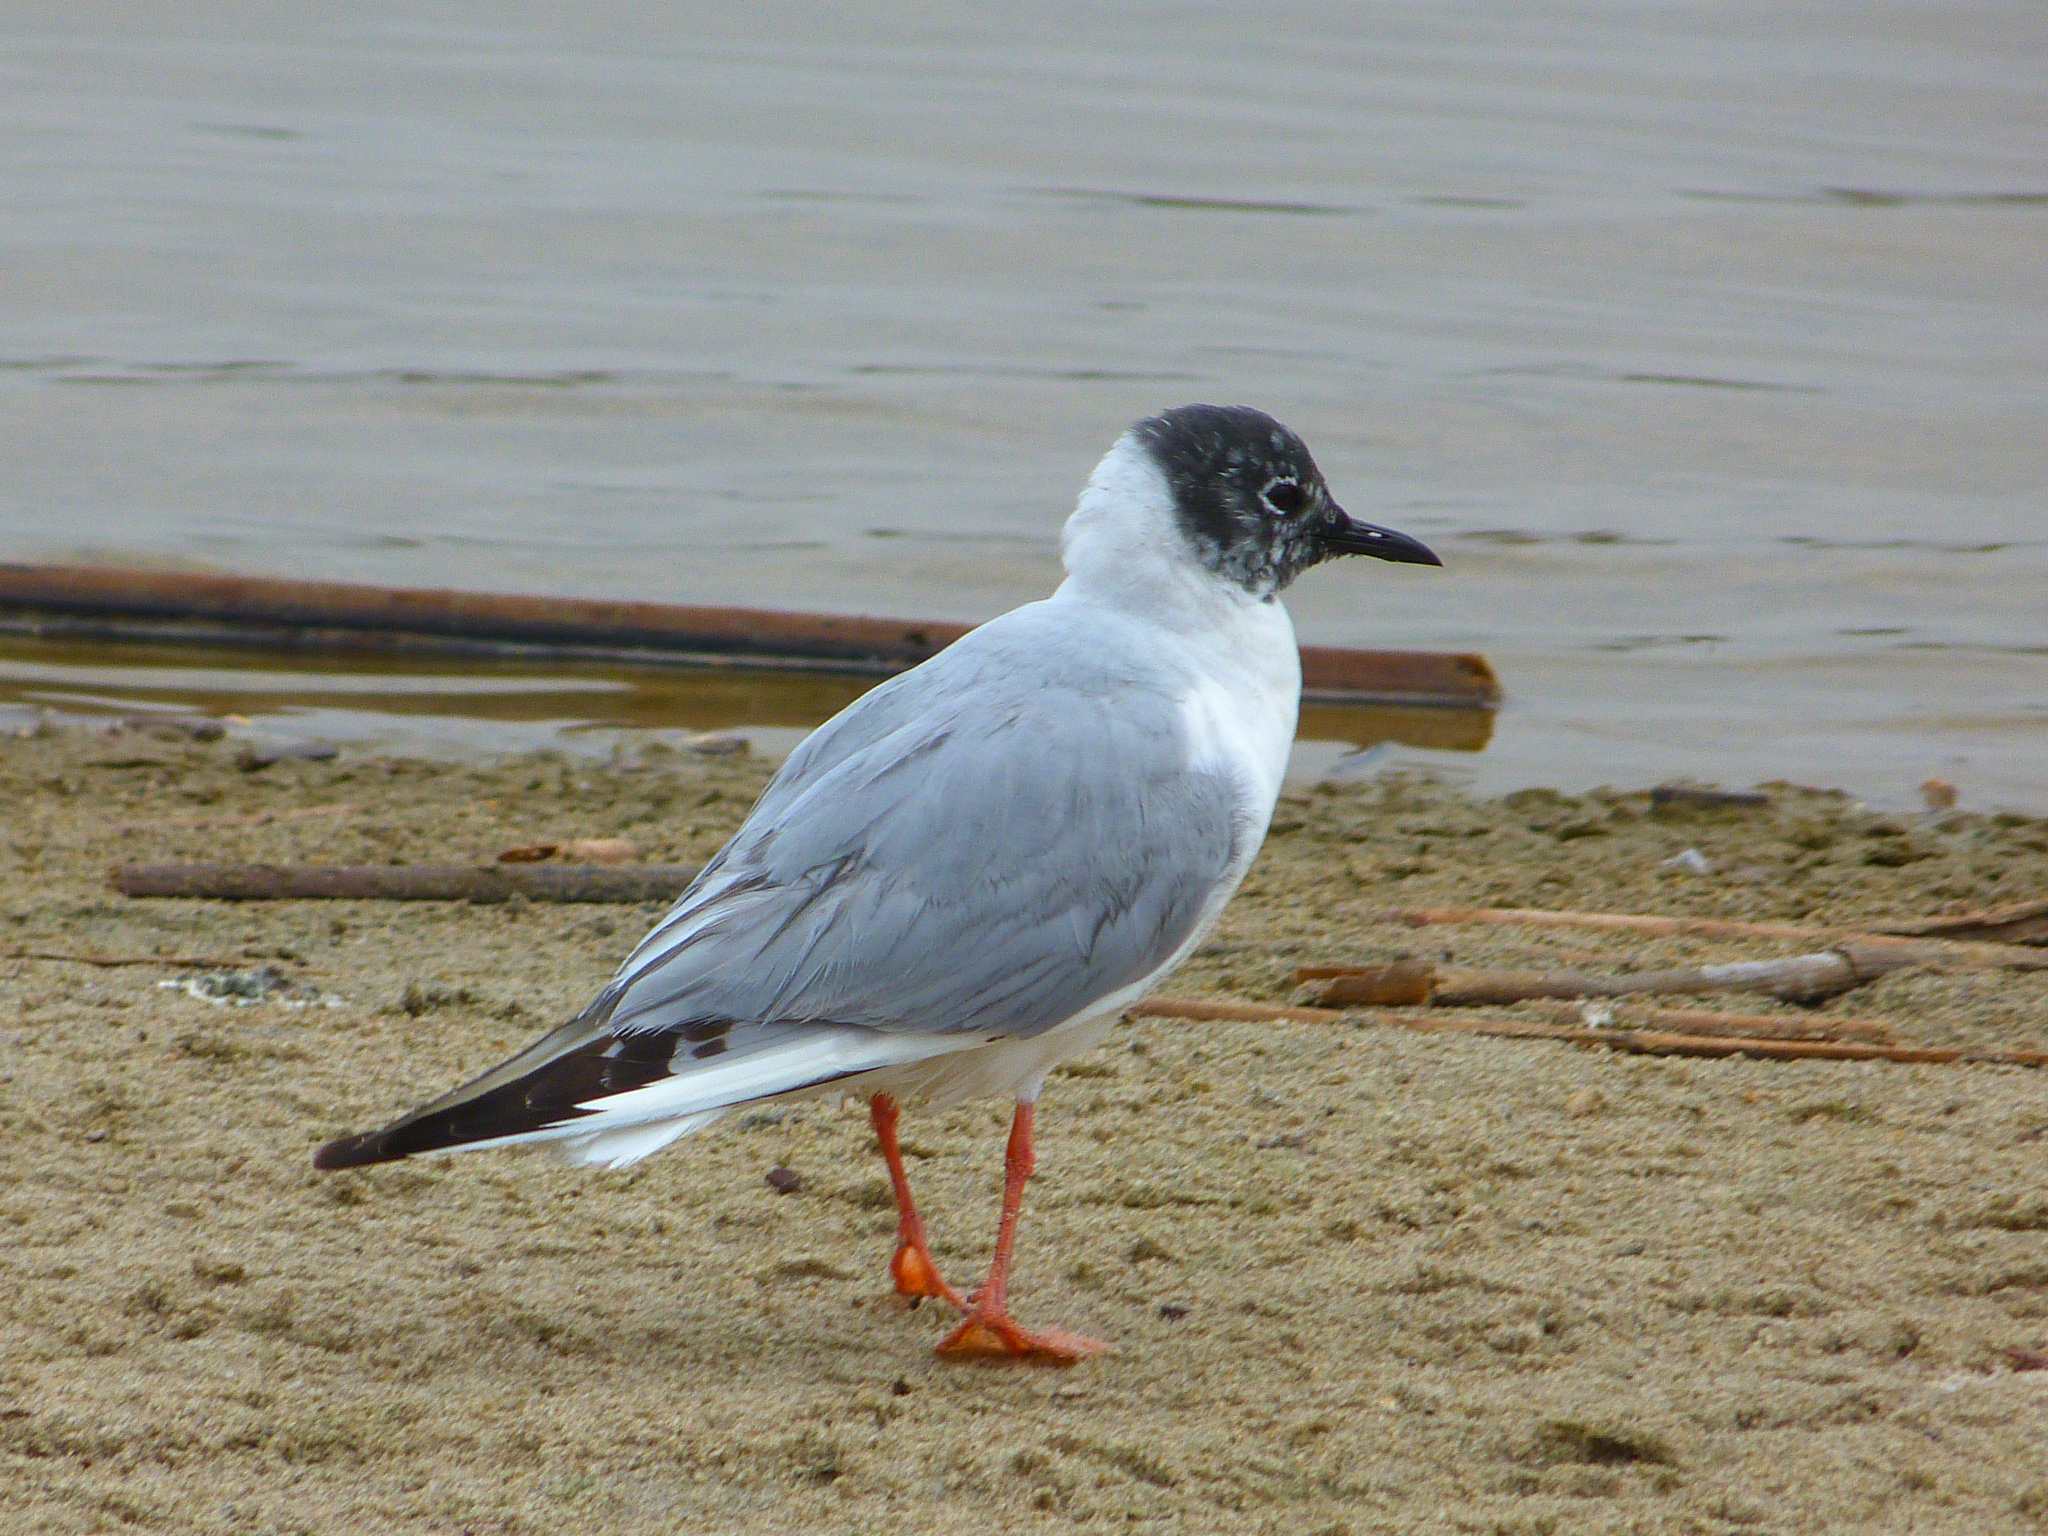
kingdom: Animalia
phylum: Chordata
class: Aves
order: Charadriiformes
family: Laridae
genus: Chroicocephalus
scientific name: Chroicocephalus philadelphia
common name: Bonaparte's gull
